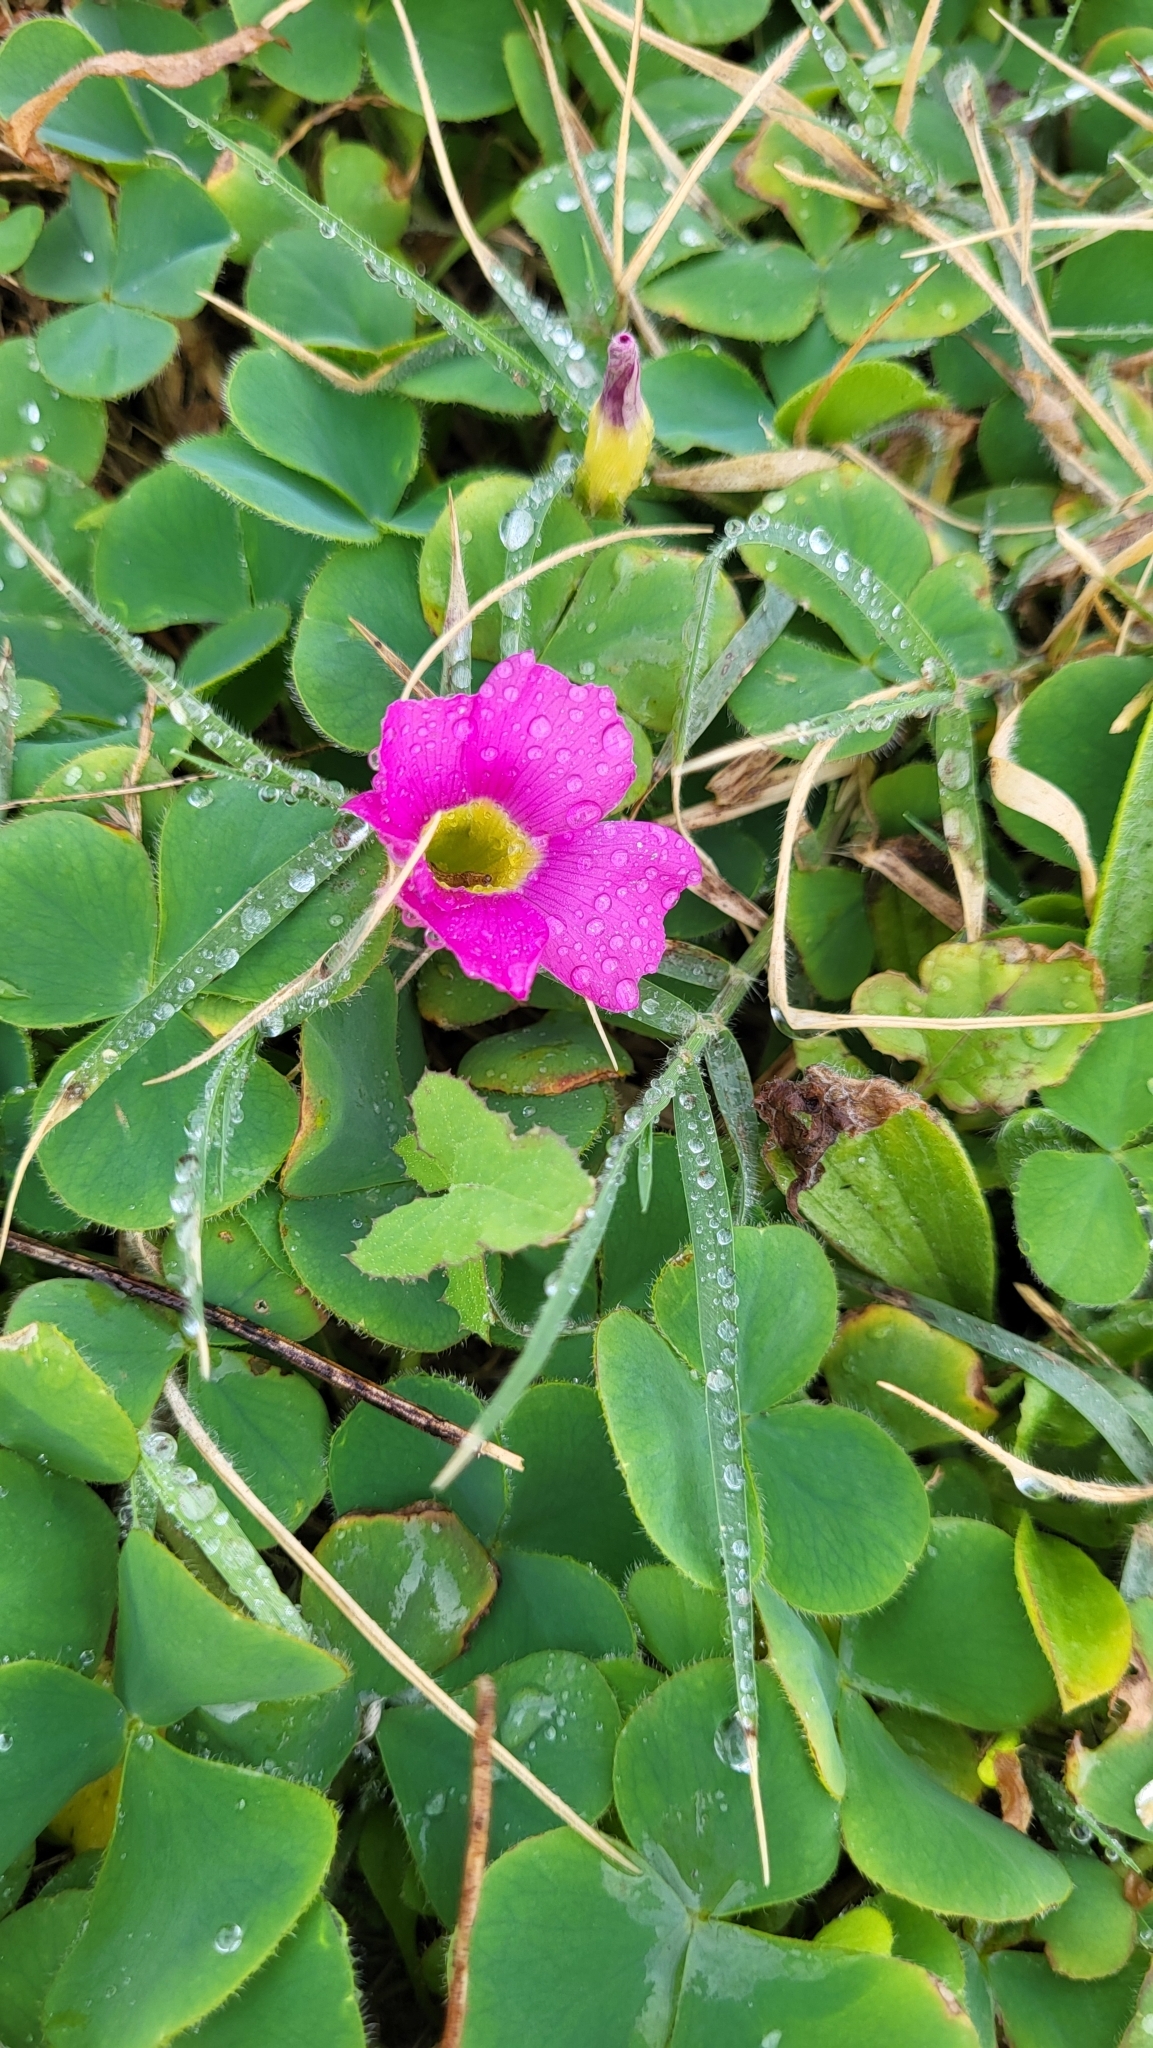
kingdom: Plantae
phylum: Tracheophyta
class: Magnoliopsida
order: Oxalidales
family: Oxalidaceae
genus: Oxalis
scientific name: Oxalis purpurea
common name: Purple woodsorrel
